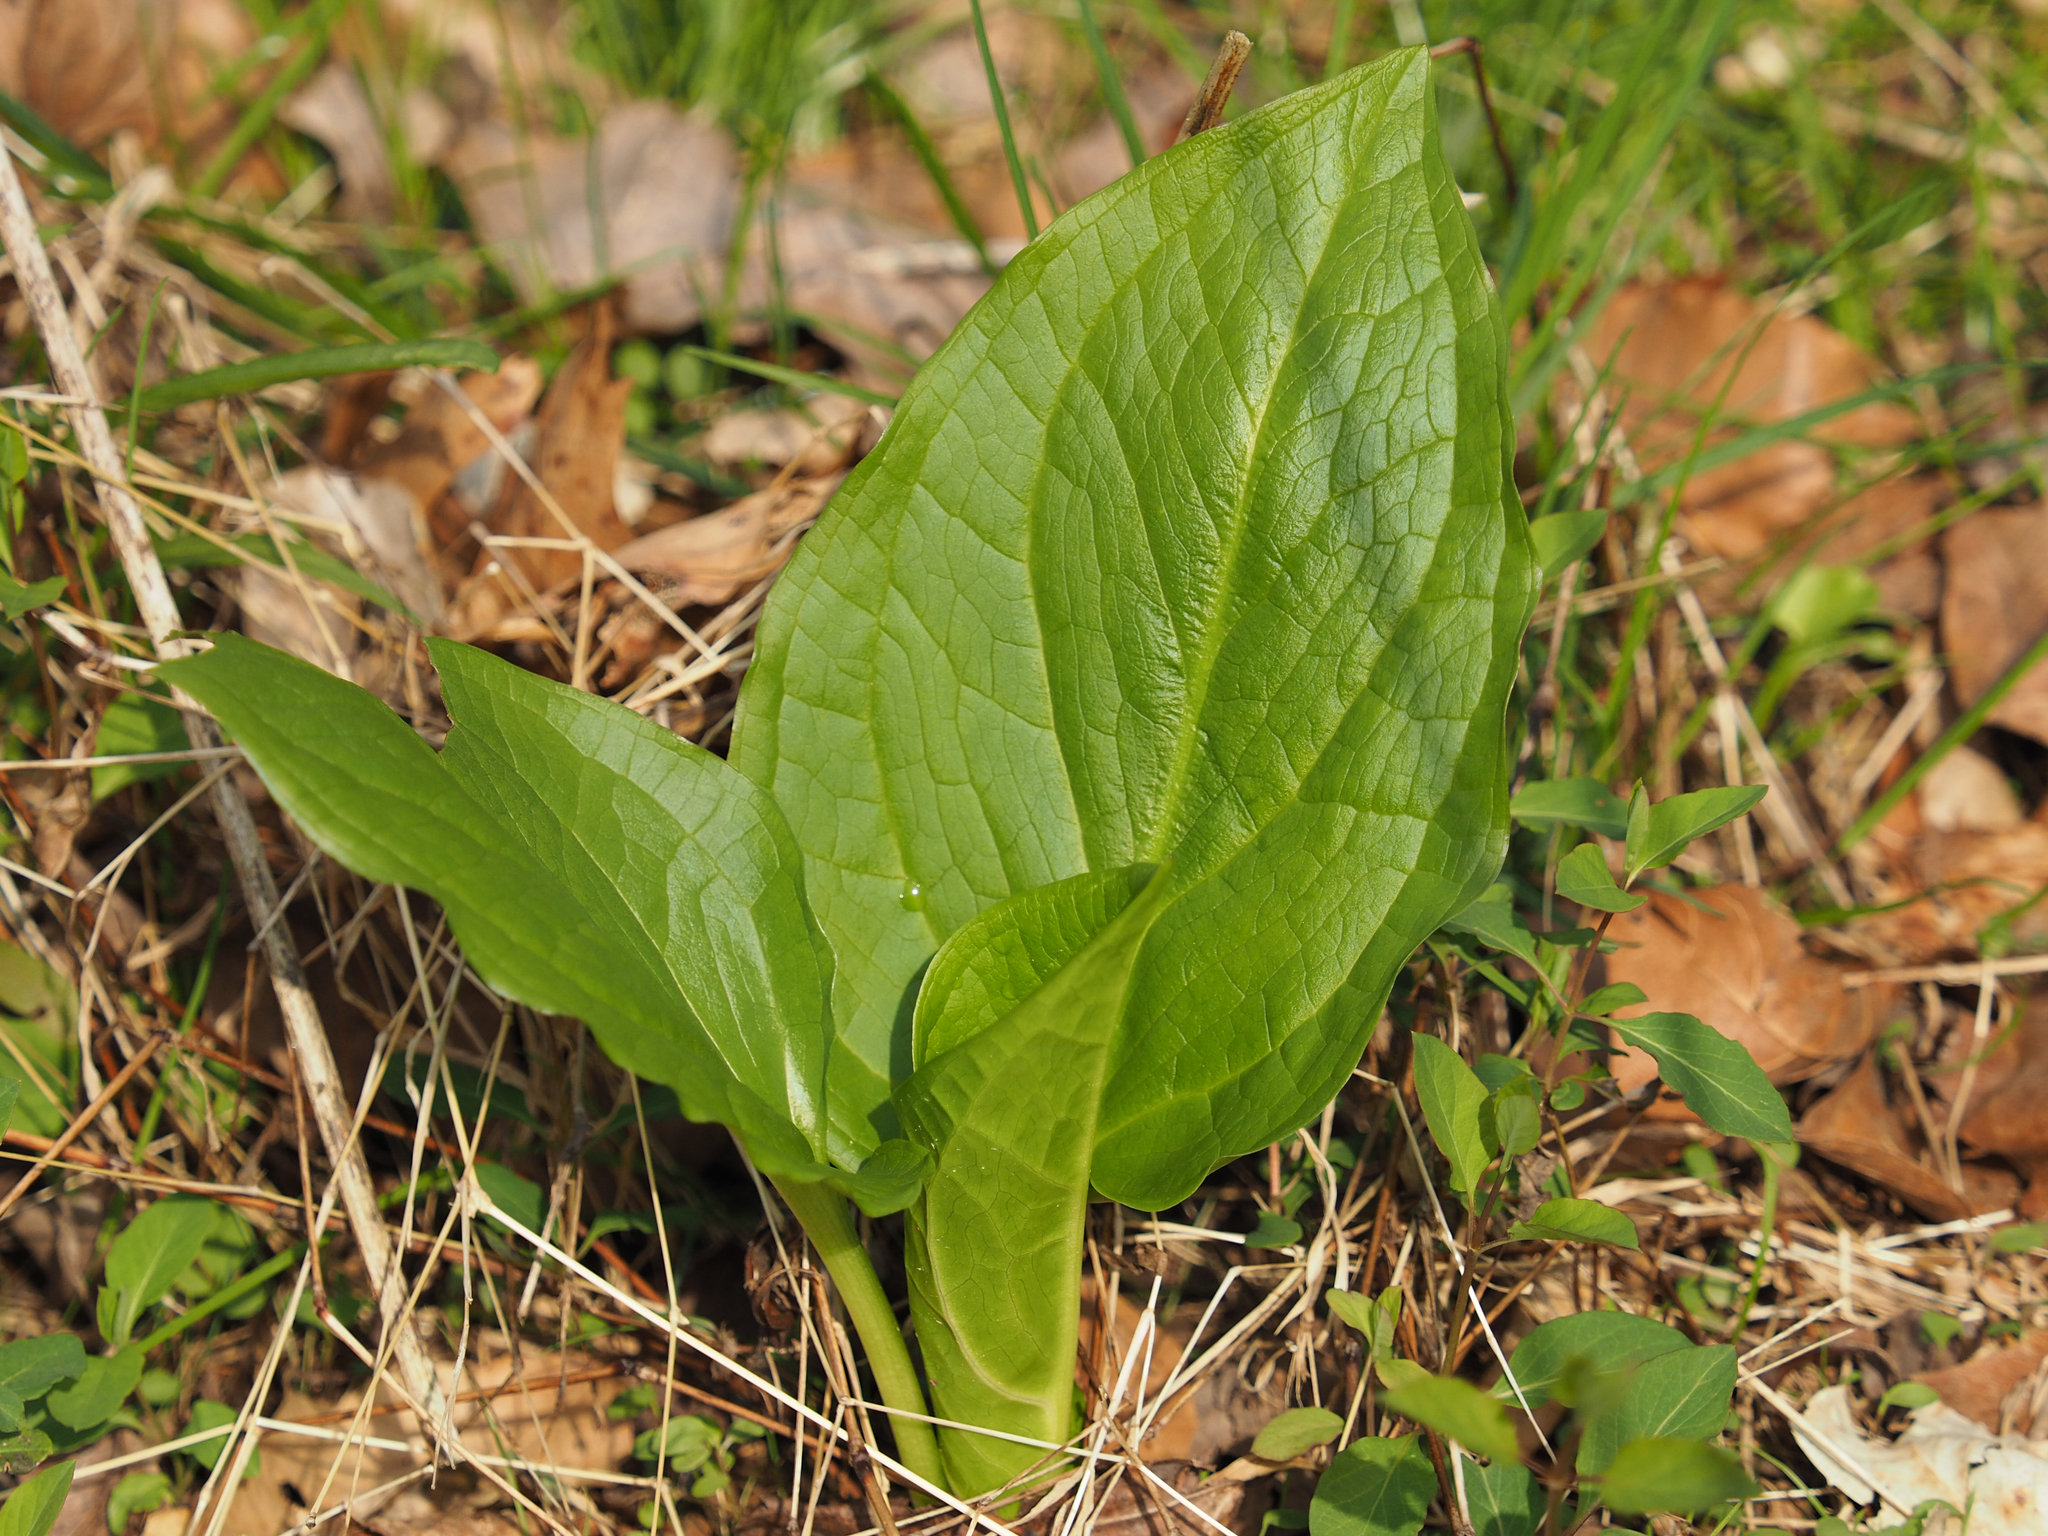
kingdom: Plantae
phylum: Tracheophyta
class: Liliopsida
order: Alismatales
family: Araceae
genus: Symplocarpus
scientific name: Symplocarpus foetidus
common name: Eastern skunk cabbage
